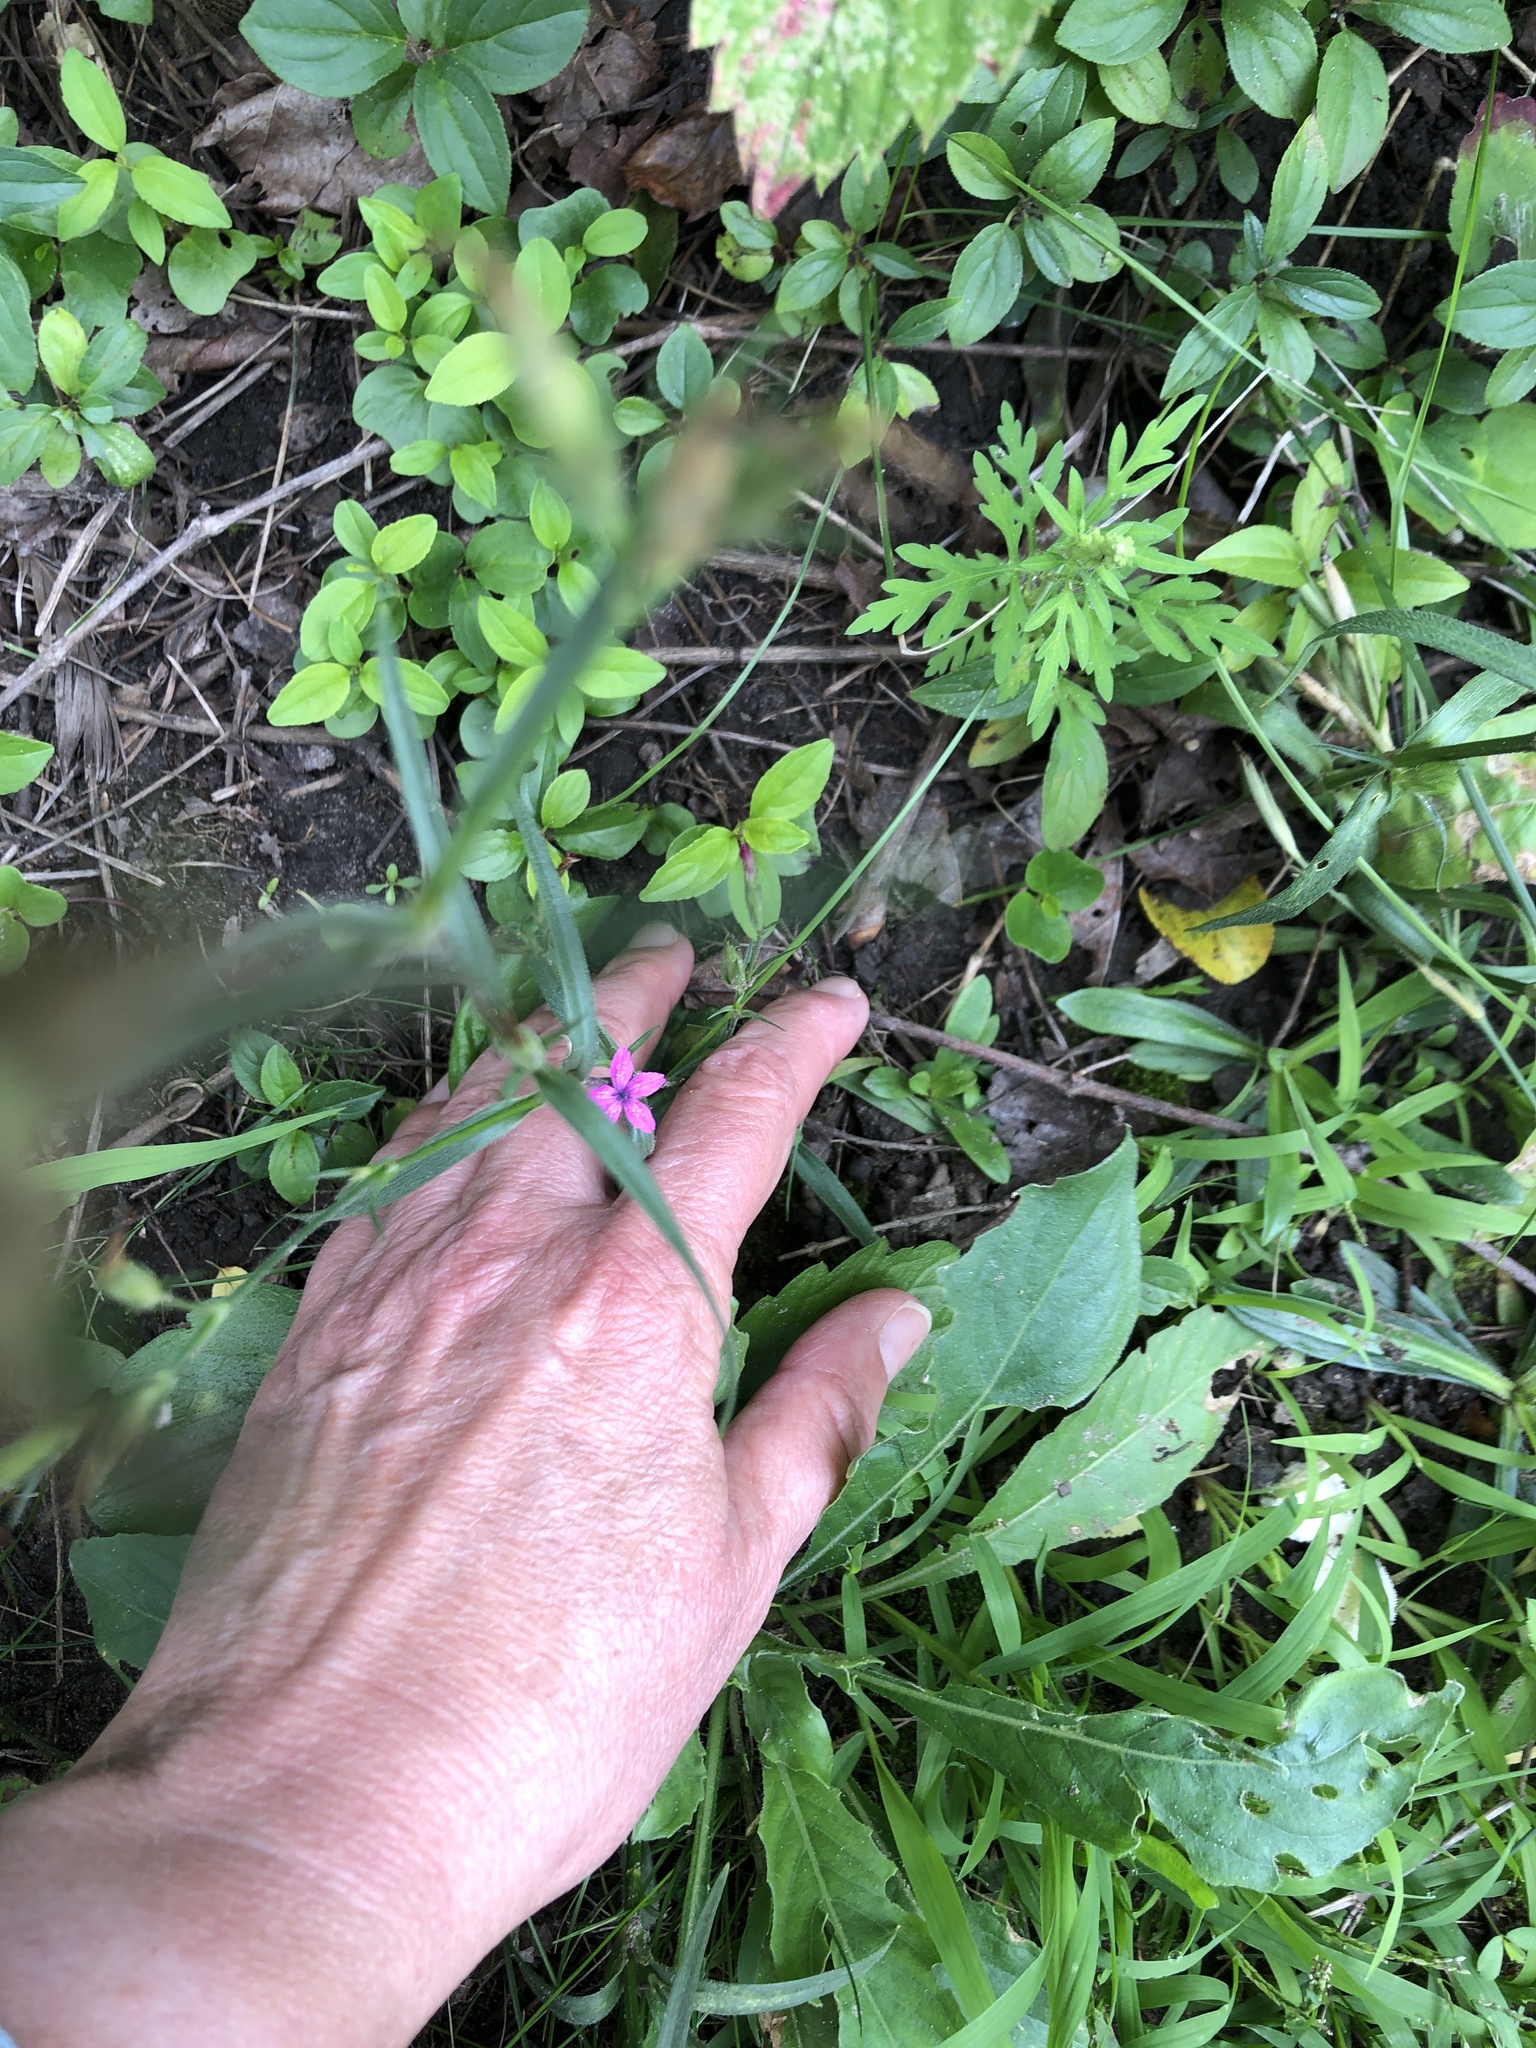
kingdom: Plantae
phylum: Tracheophyta
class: Magnoliopsida
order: Caryophyllales
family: Caryophyllaceae
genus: Dianthus
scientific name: Dianthus armeria
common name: Deptford pink
